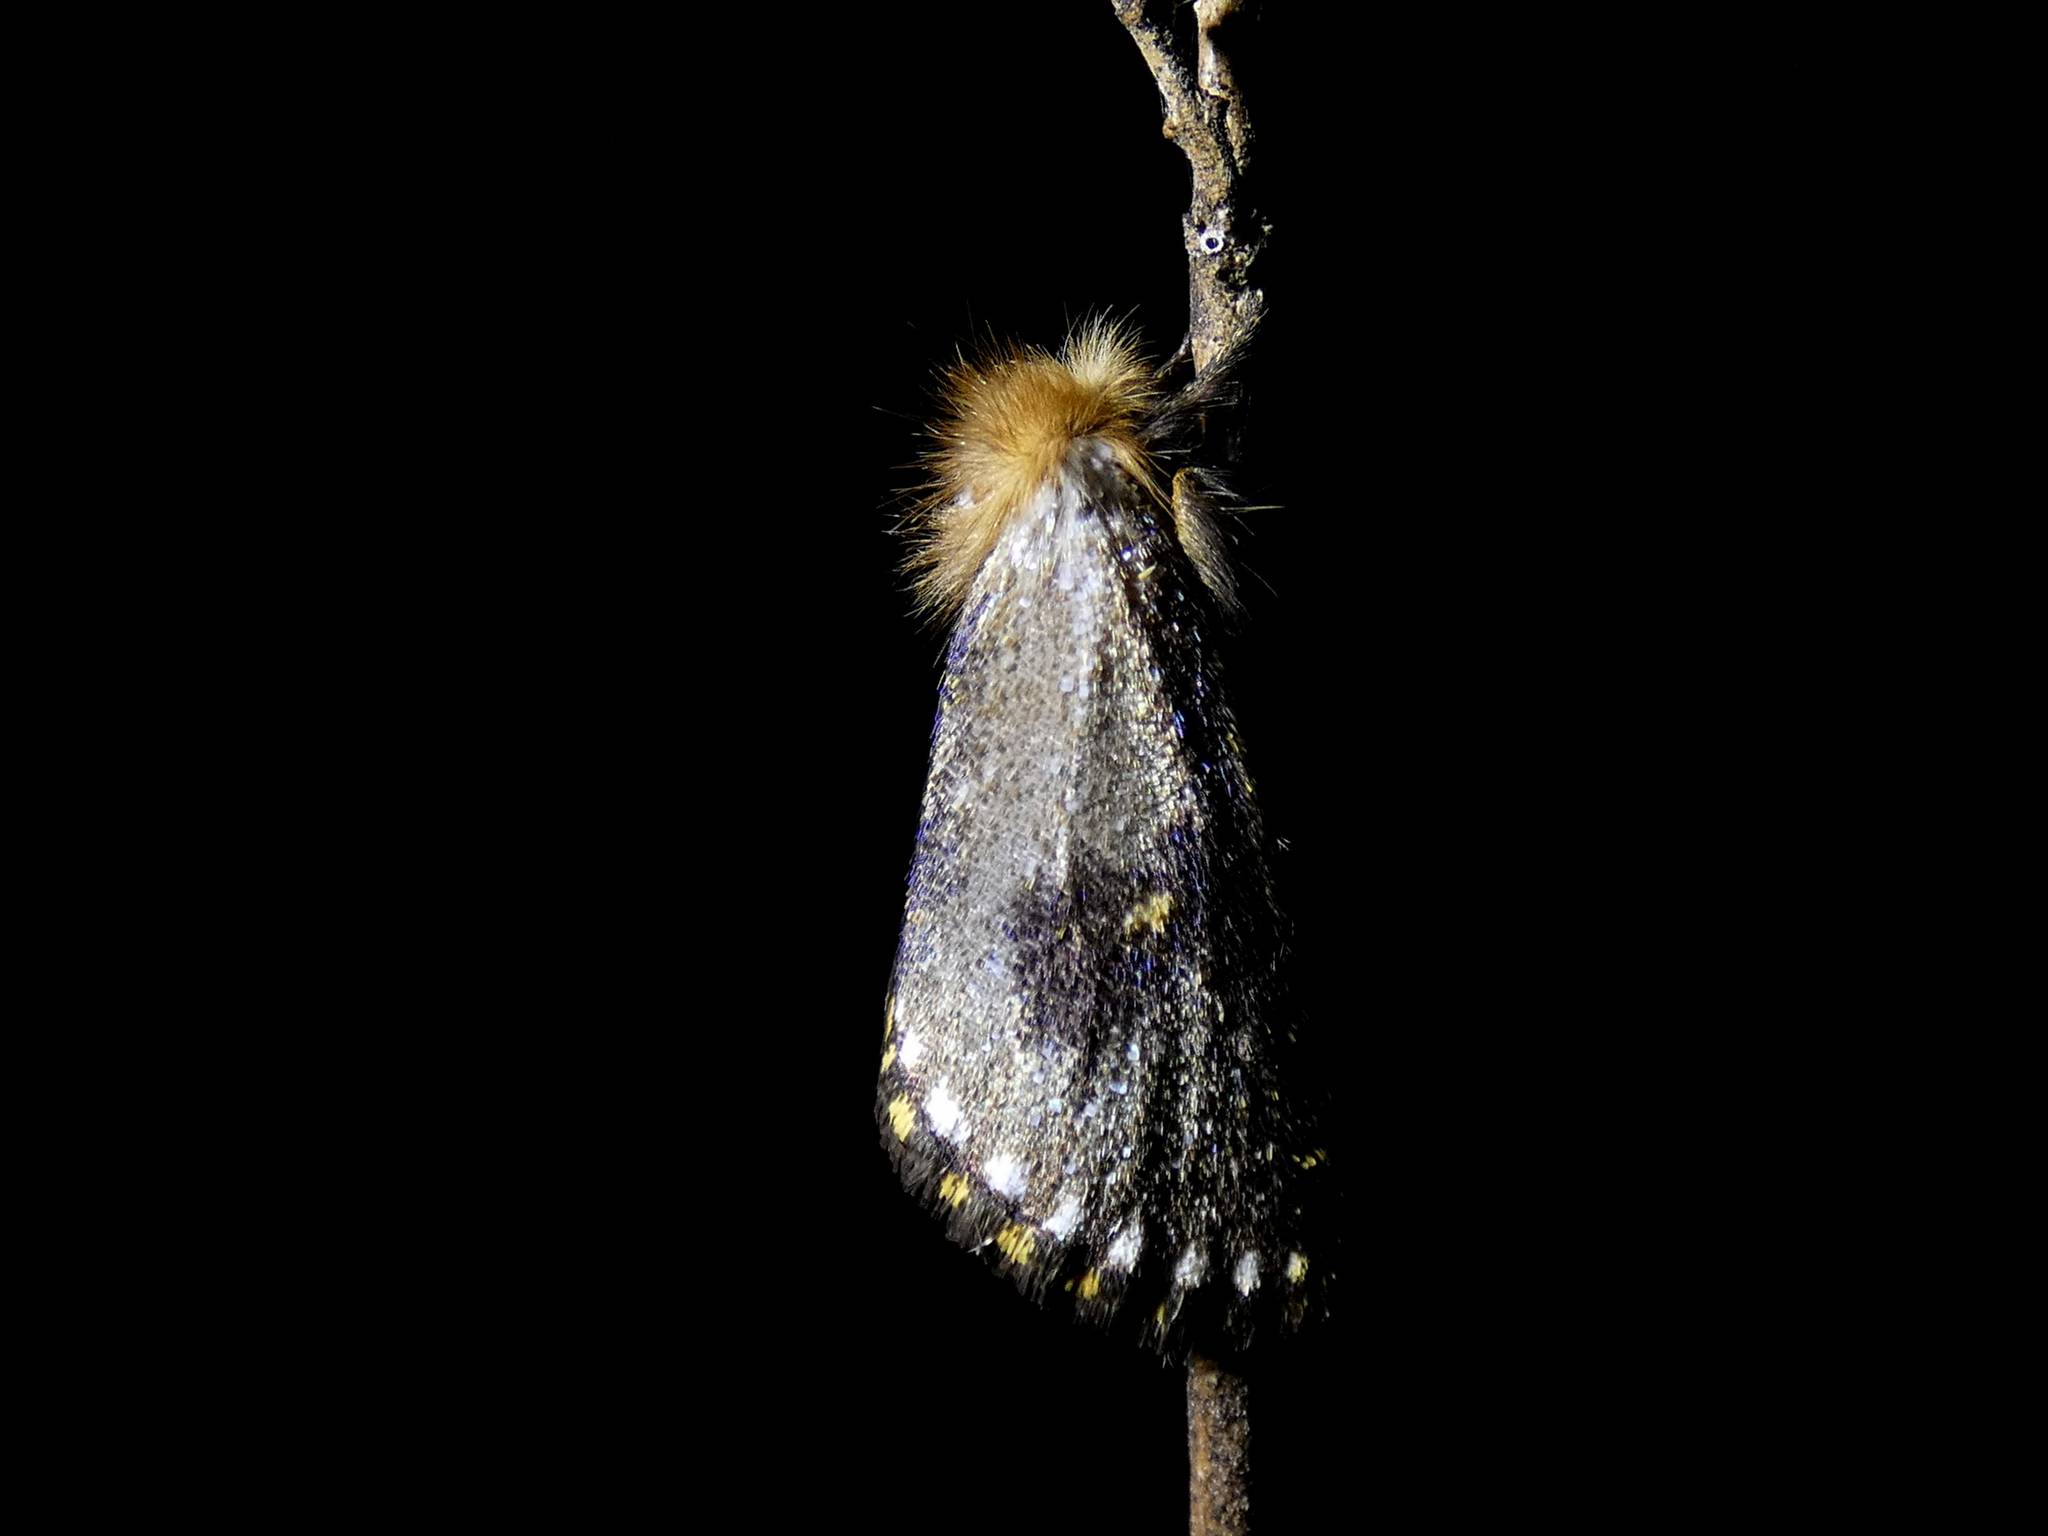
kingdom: Animalia
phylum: Arthropoda
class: Insecta
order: Lepidoptera
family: Notodontidae
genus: Epicoma
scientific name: Epicoma contristis
